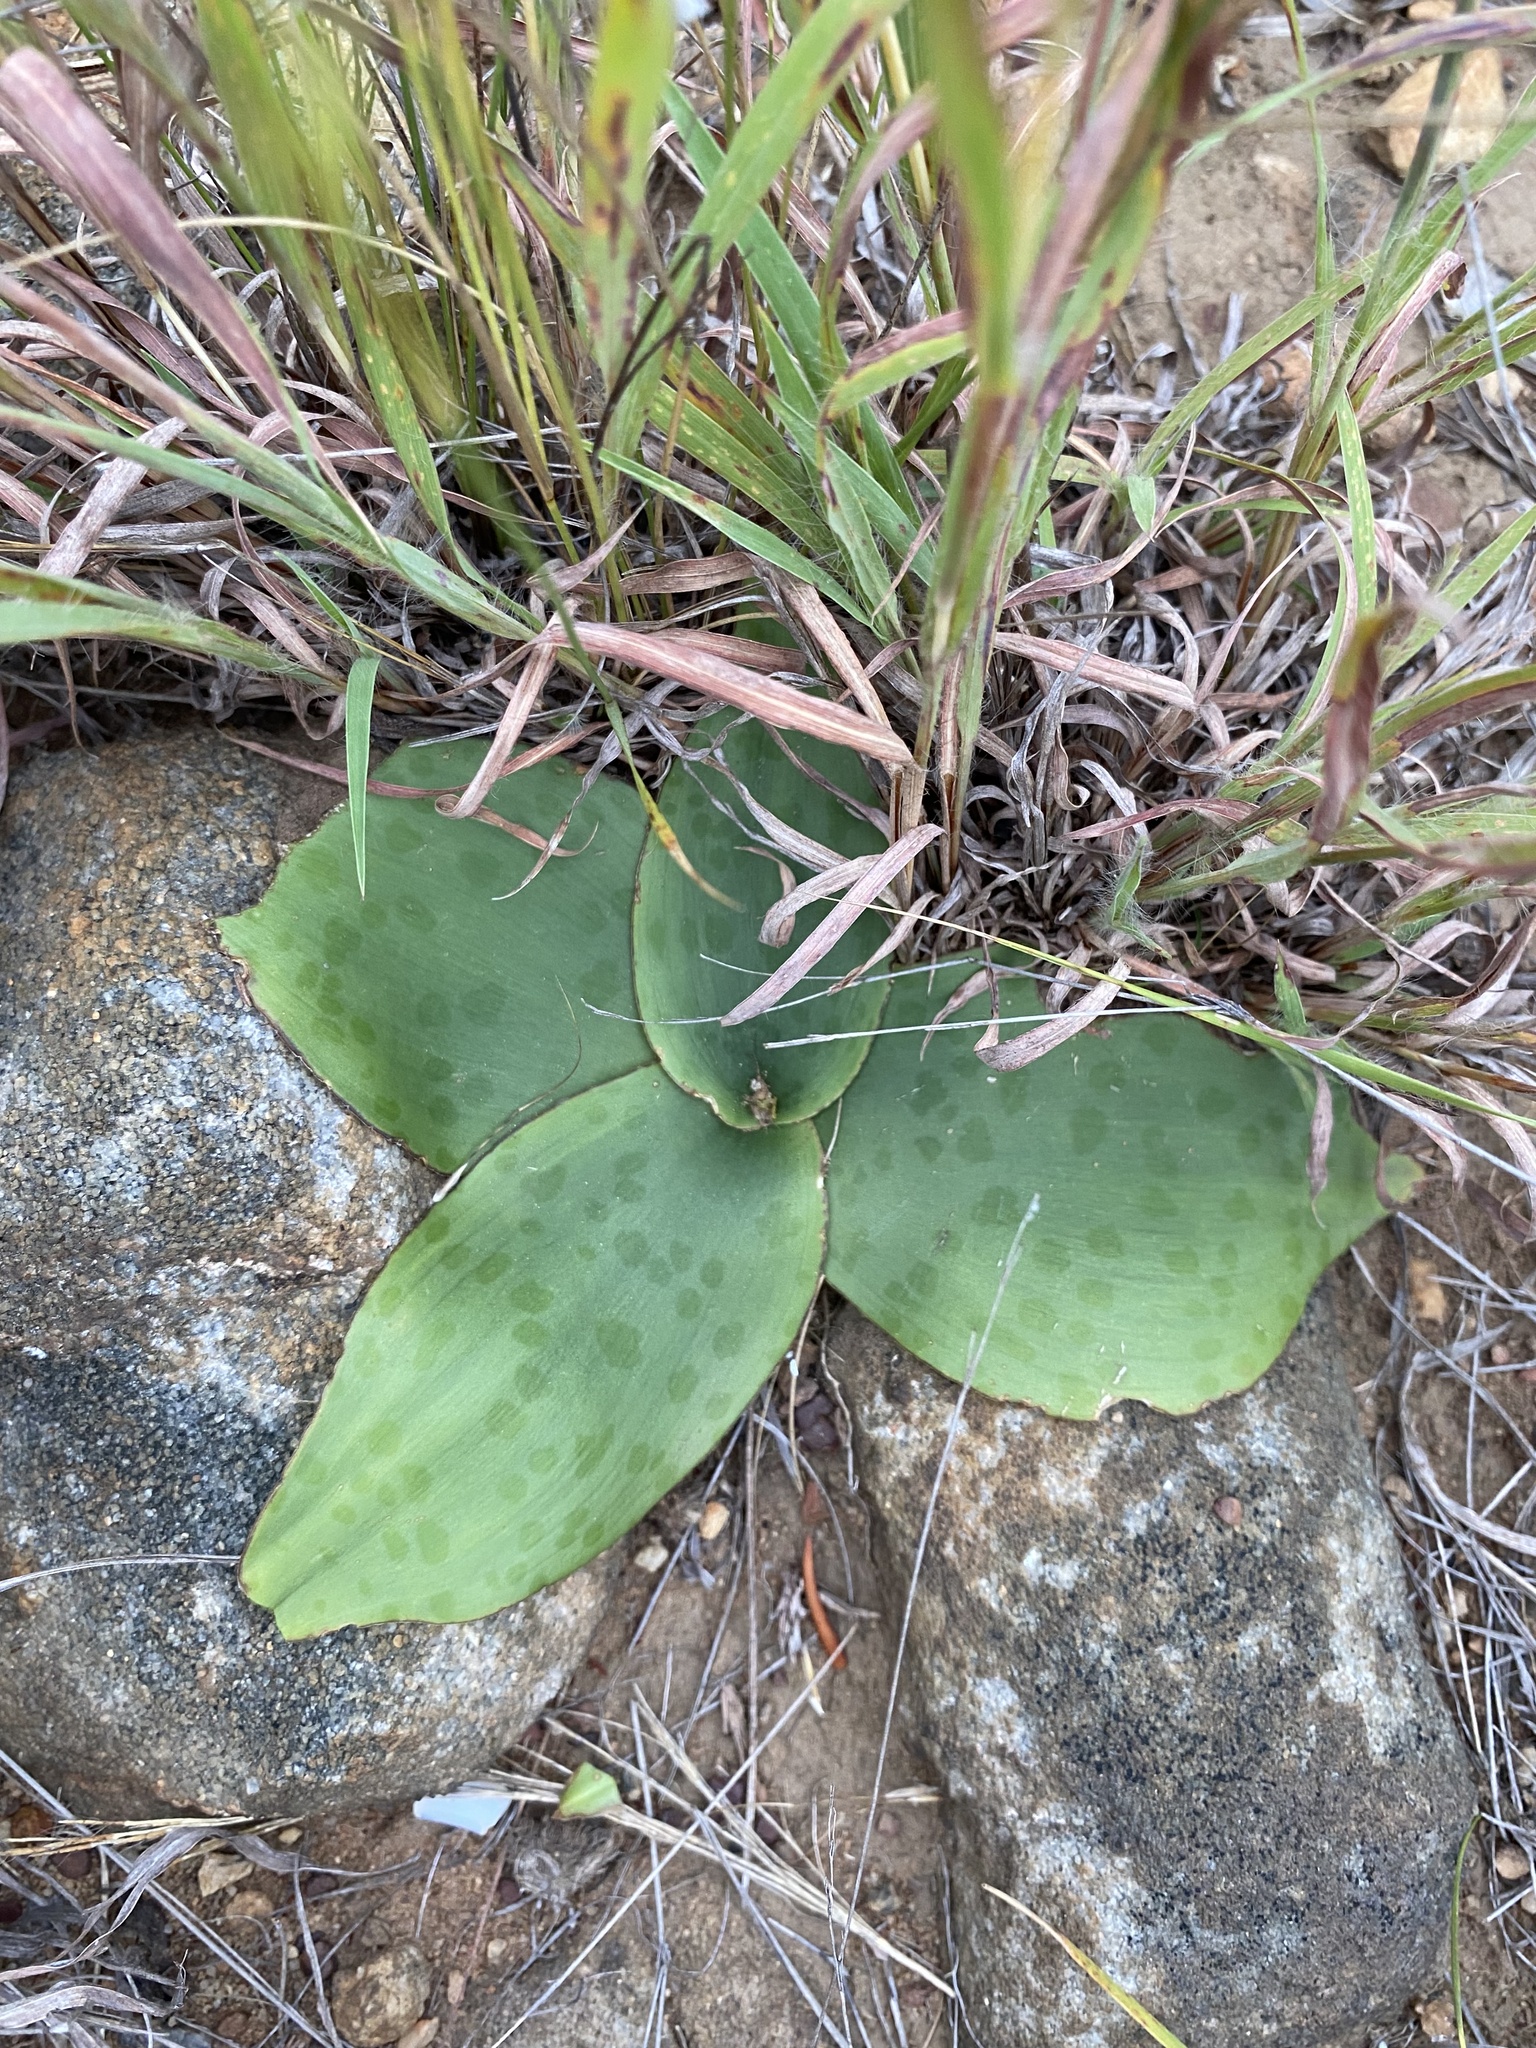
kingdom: Plantae
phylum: Tracheophyta
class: Liliopsida
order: Asparagales
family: Asparagaceae
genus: Ledebouria
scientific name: Ledebouria ovatifolia
